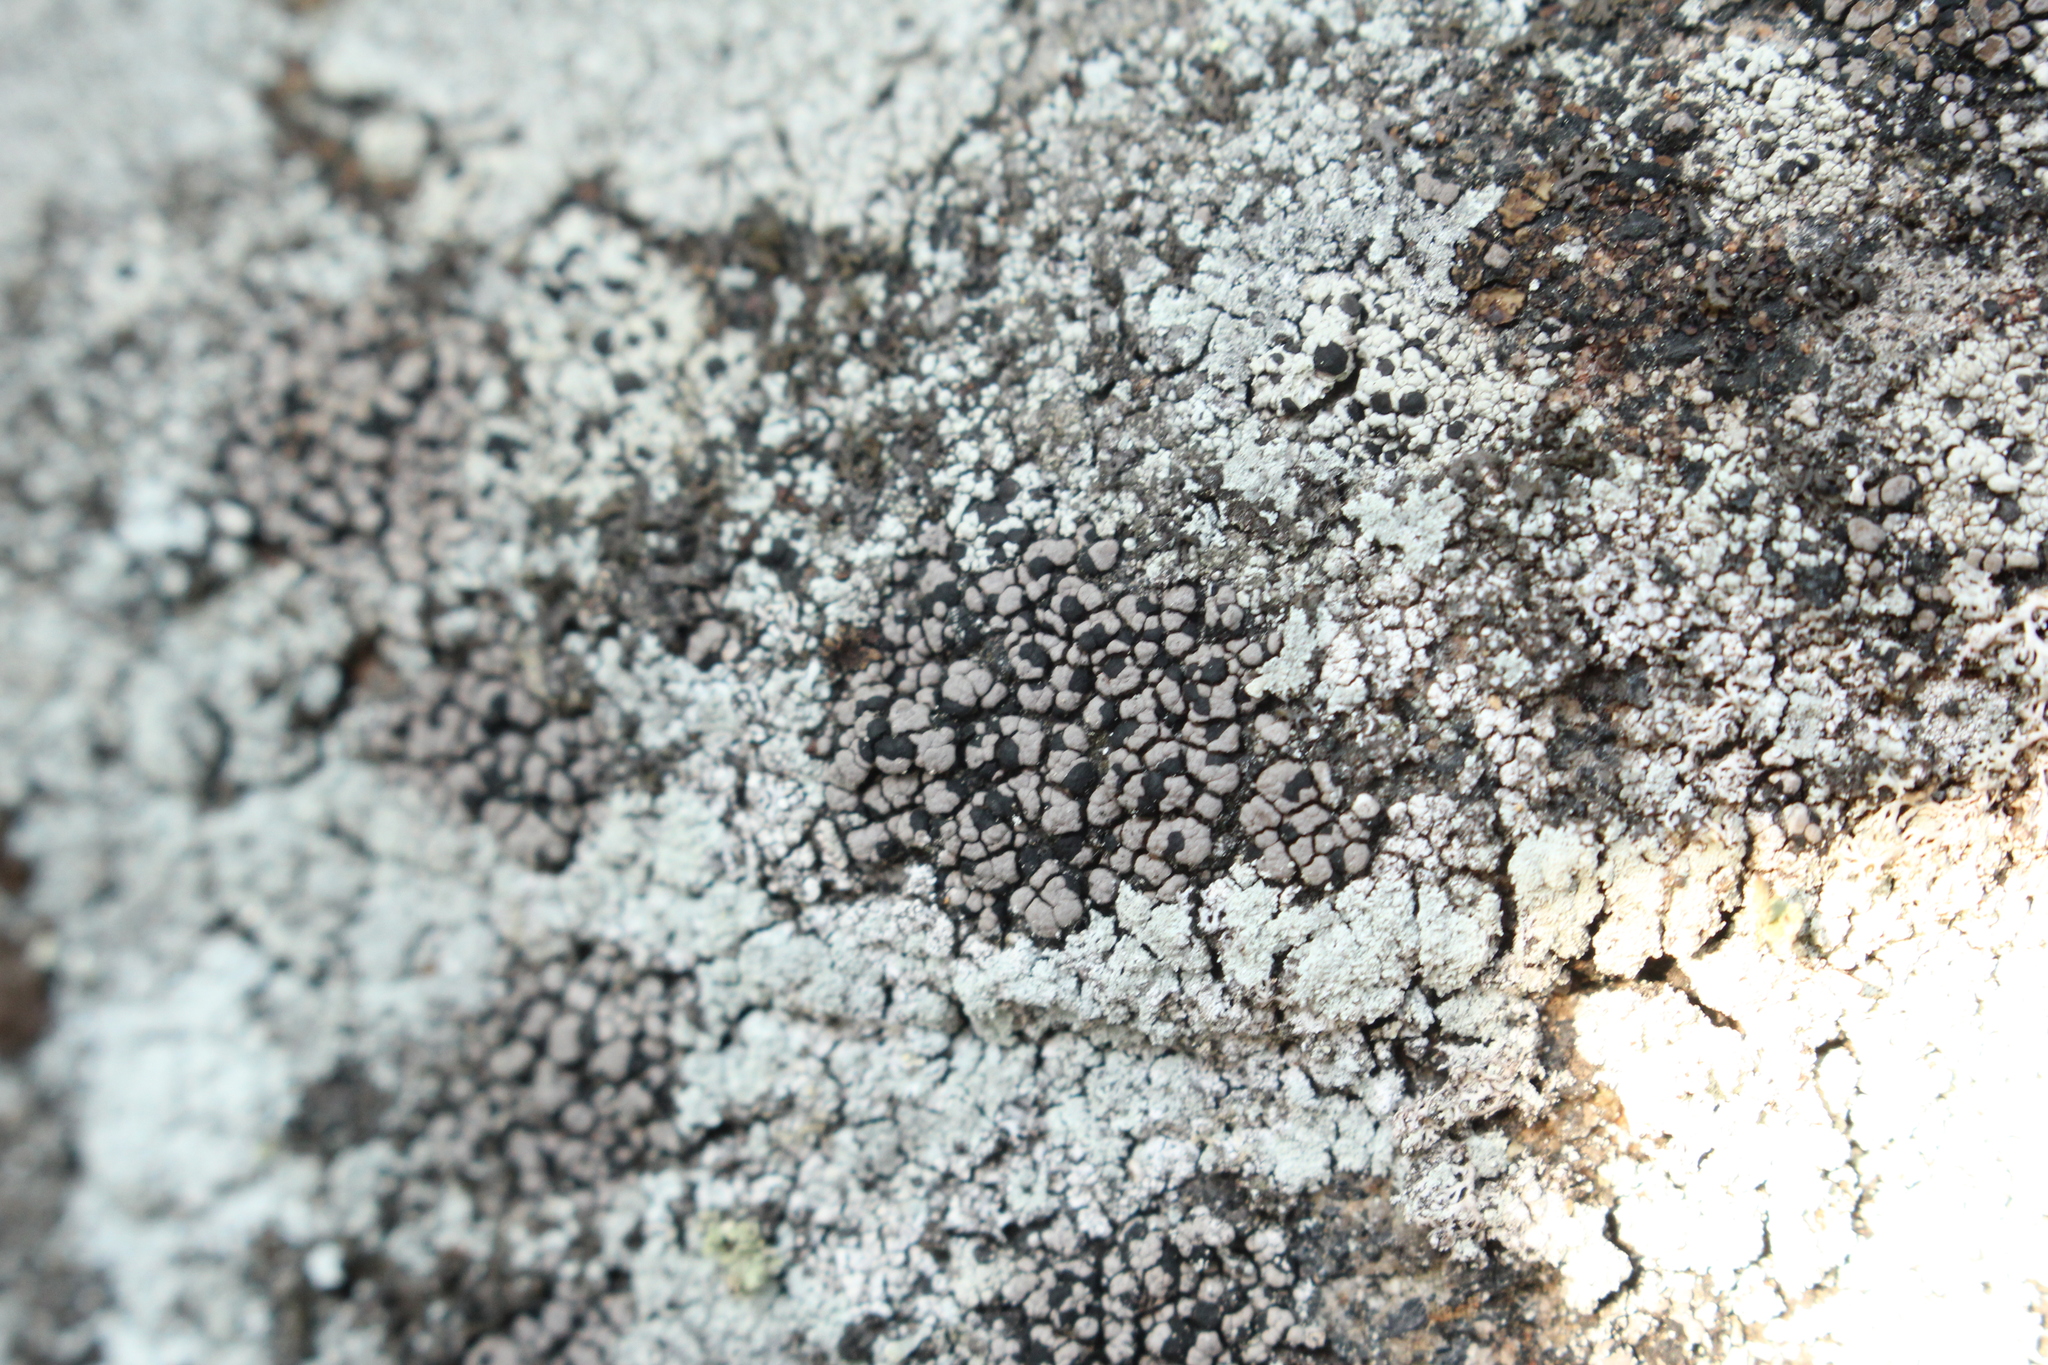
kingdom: Fungi
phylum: Ascomycota
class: Lecanoromycetes
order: Rhizocarpales
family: Rhizocarpaceae
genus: Rhizocarpon
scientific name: Rhizocarpon grande
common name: Big map lichen
